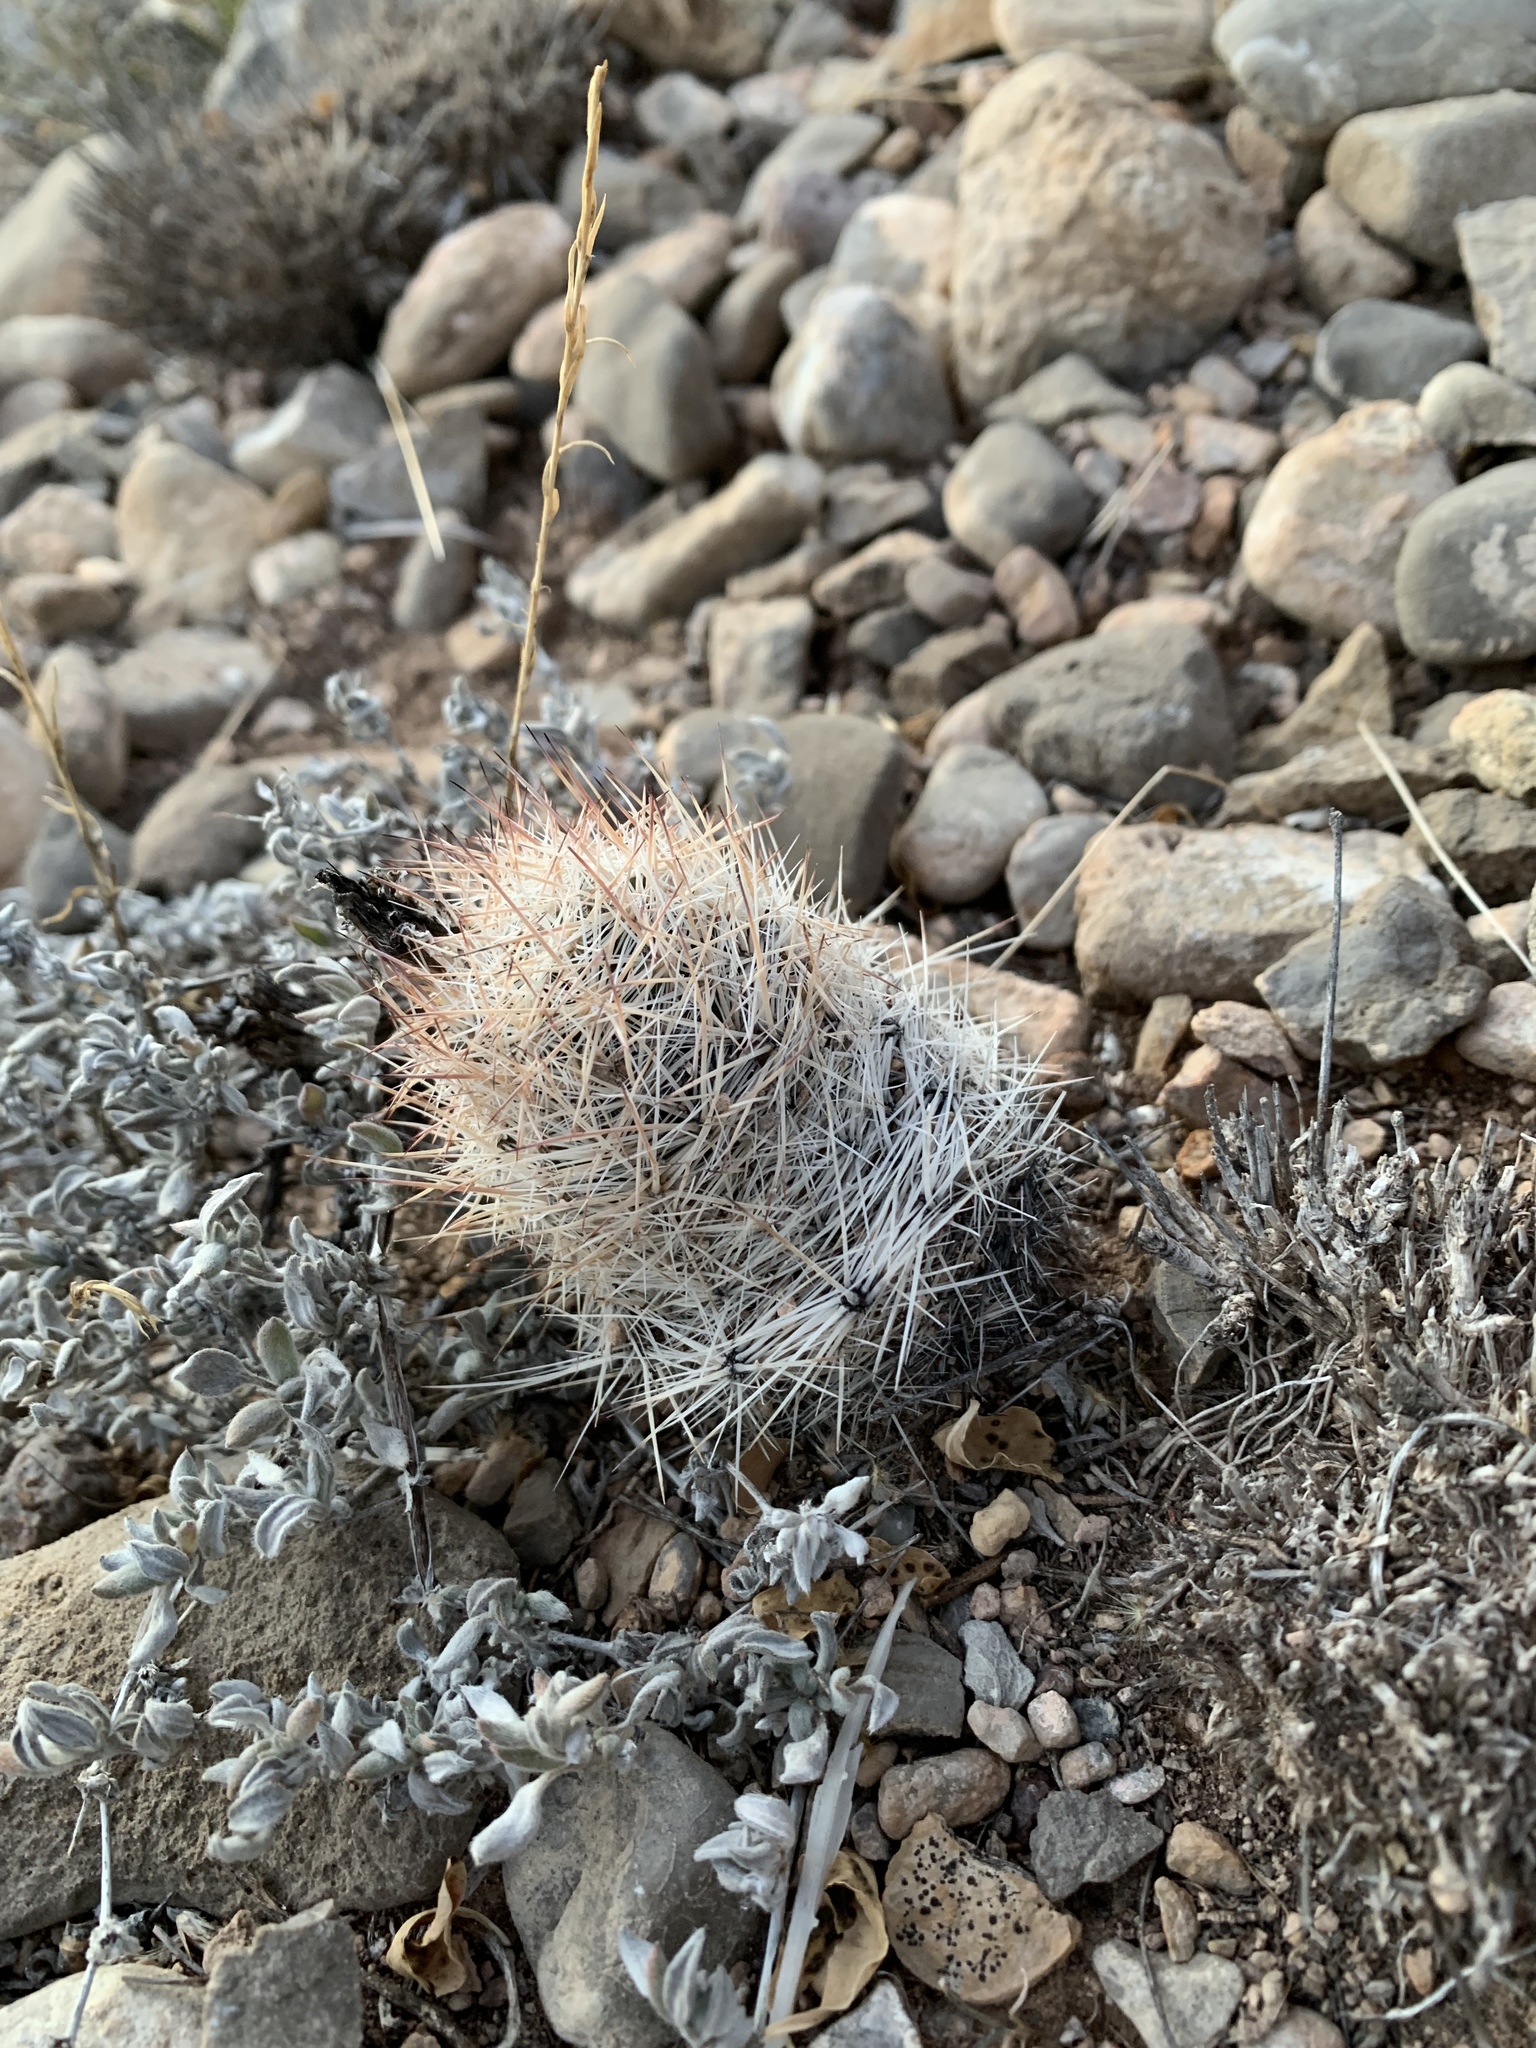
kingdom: Plantae
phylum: Tracheophyta
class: Magnoliopsida
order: Caryophyllales
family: Cactaceae
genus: Pelecyphora
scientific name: Pelecyphora tuberculosa
